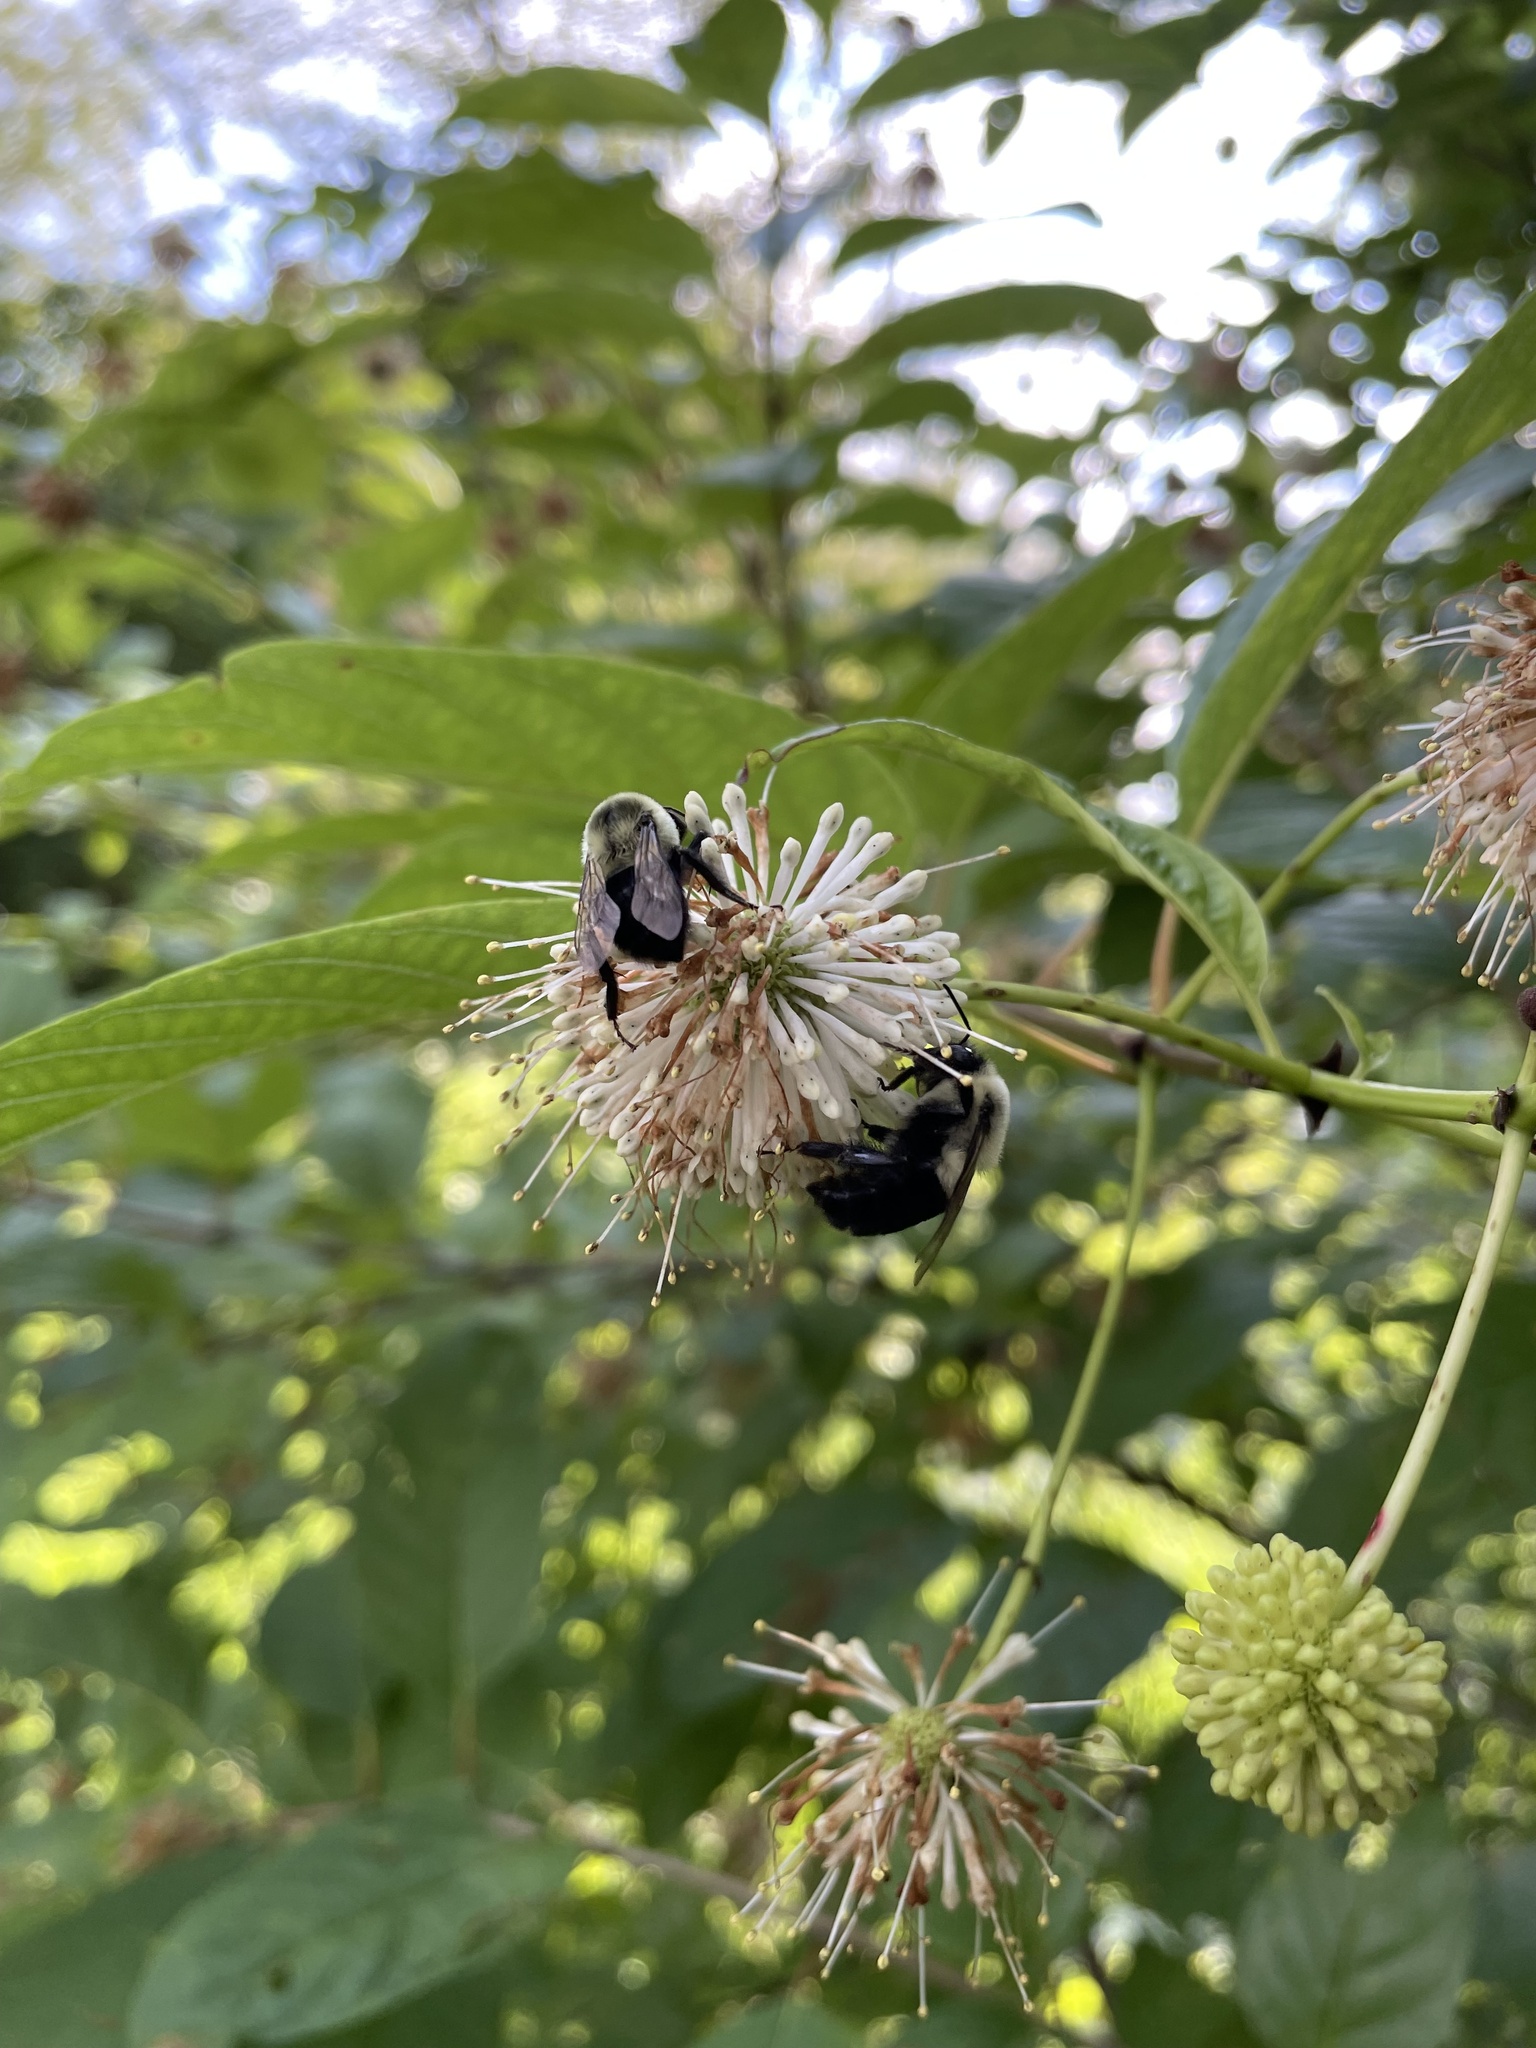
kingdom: Animalia
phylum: Arthropoda
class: Insecta
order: Hymenoptera
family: Apidae
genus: Bombus
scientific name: Bombus impatiens
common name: Common eastern bumble bee
